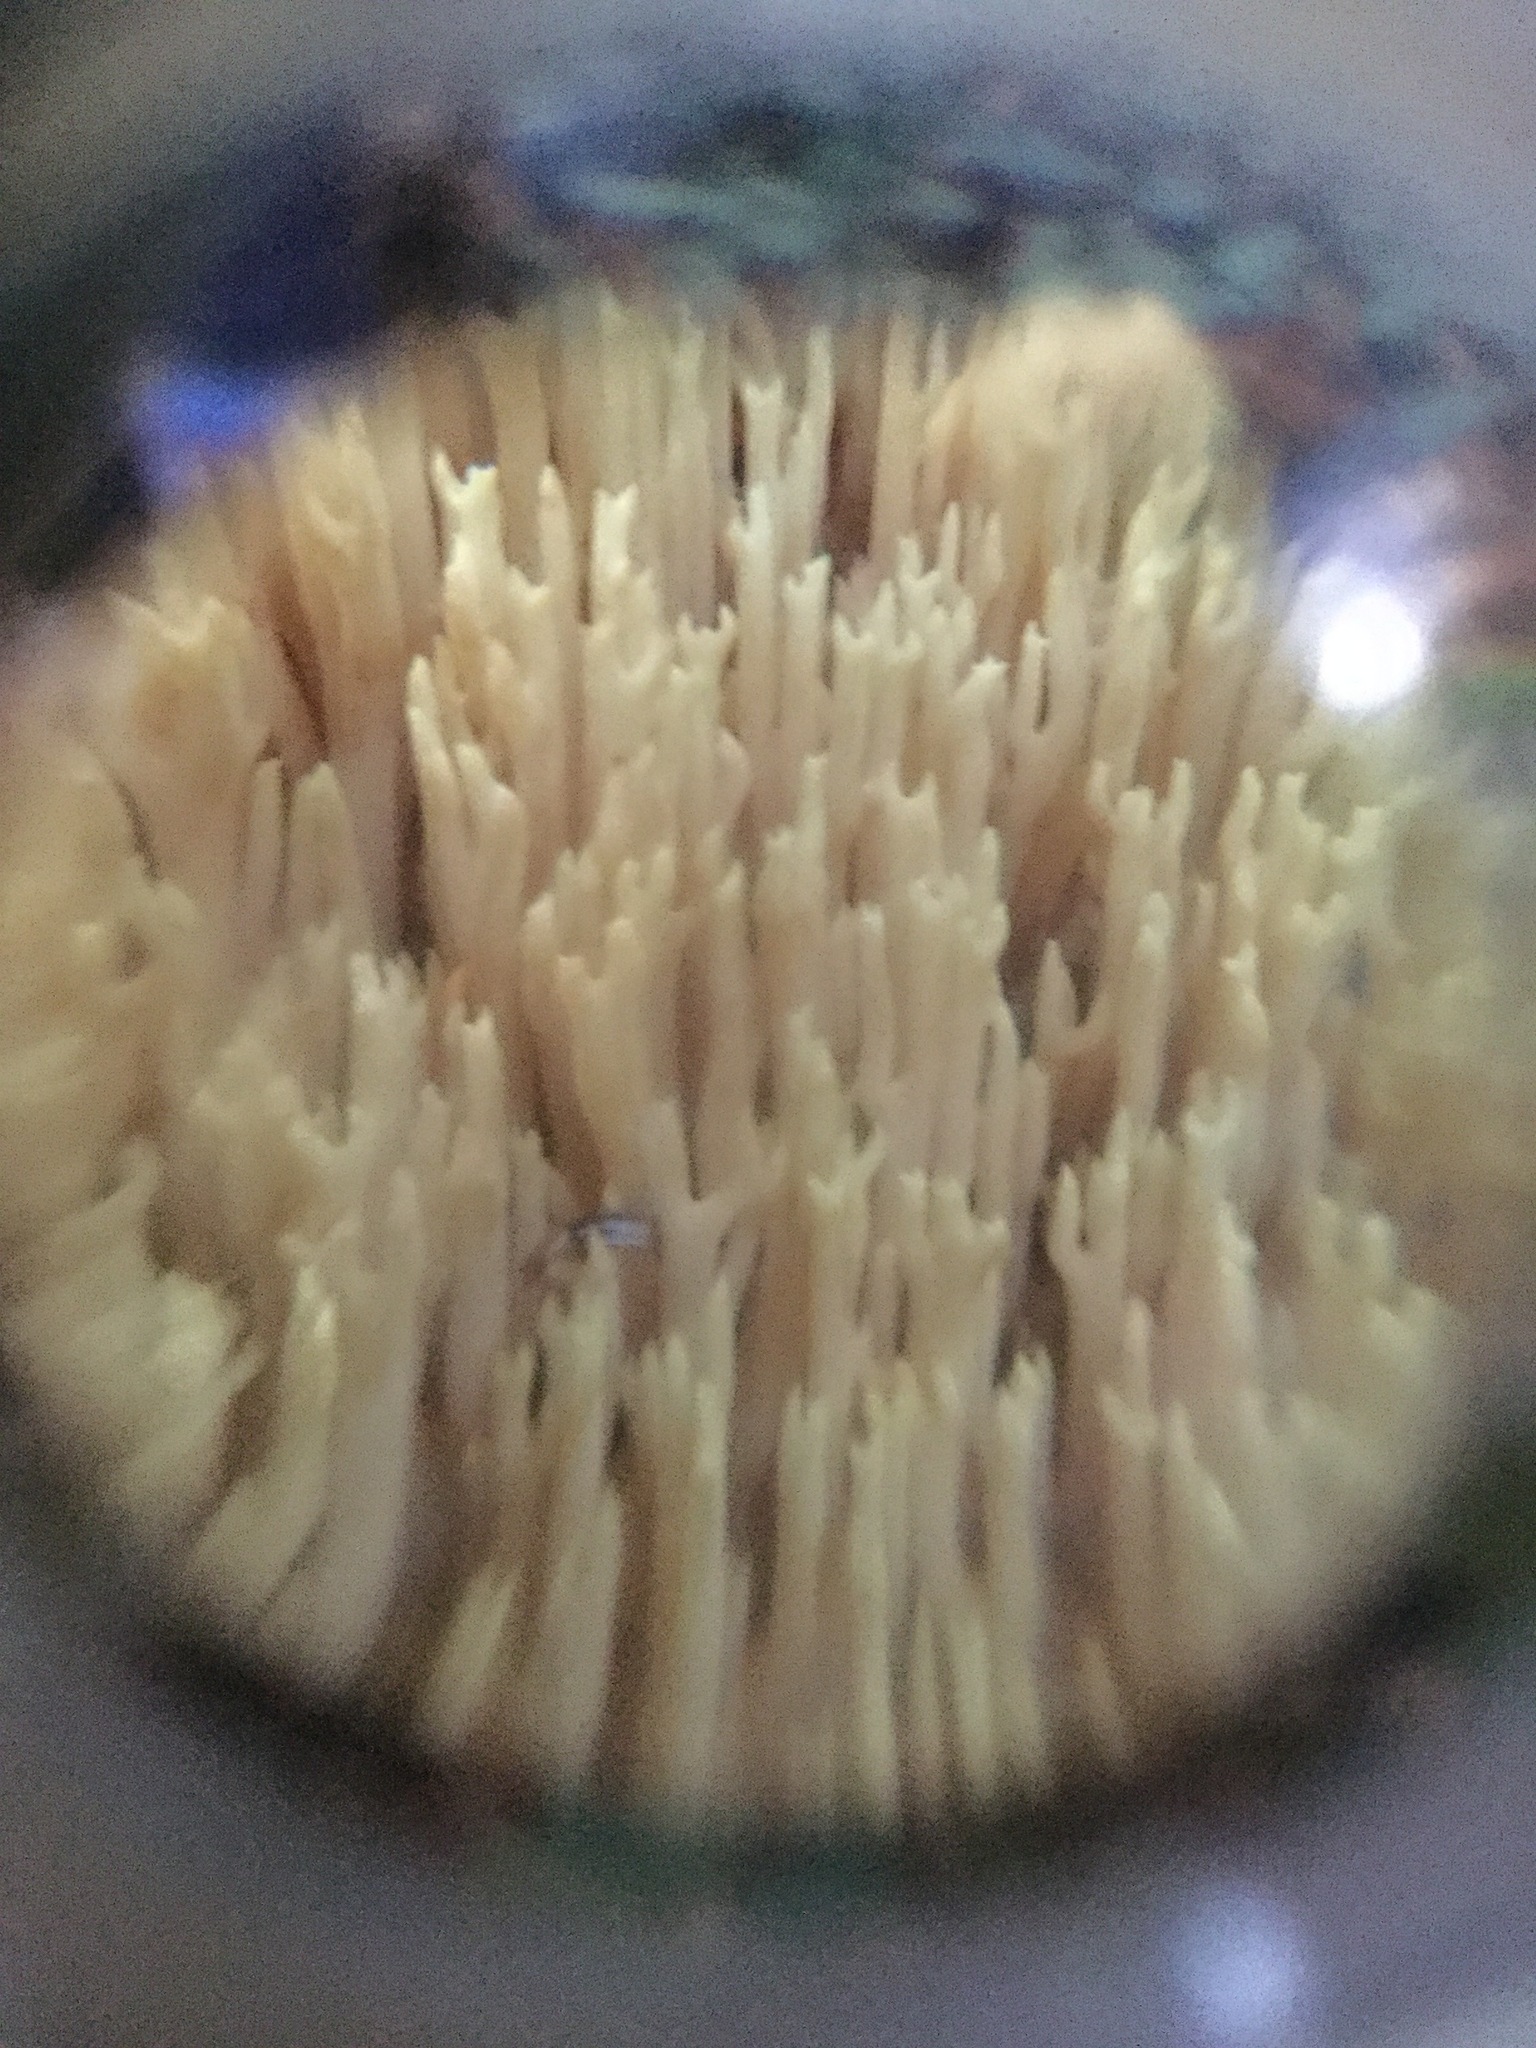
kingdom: Fungi
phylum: Basidiomycota
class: Agaricomycetes
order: Gomphales
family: Gomphaceae
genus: Ramaria
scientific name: Ramaria stricta
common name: Upright coral
